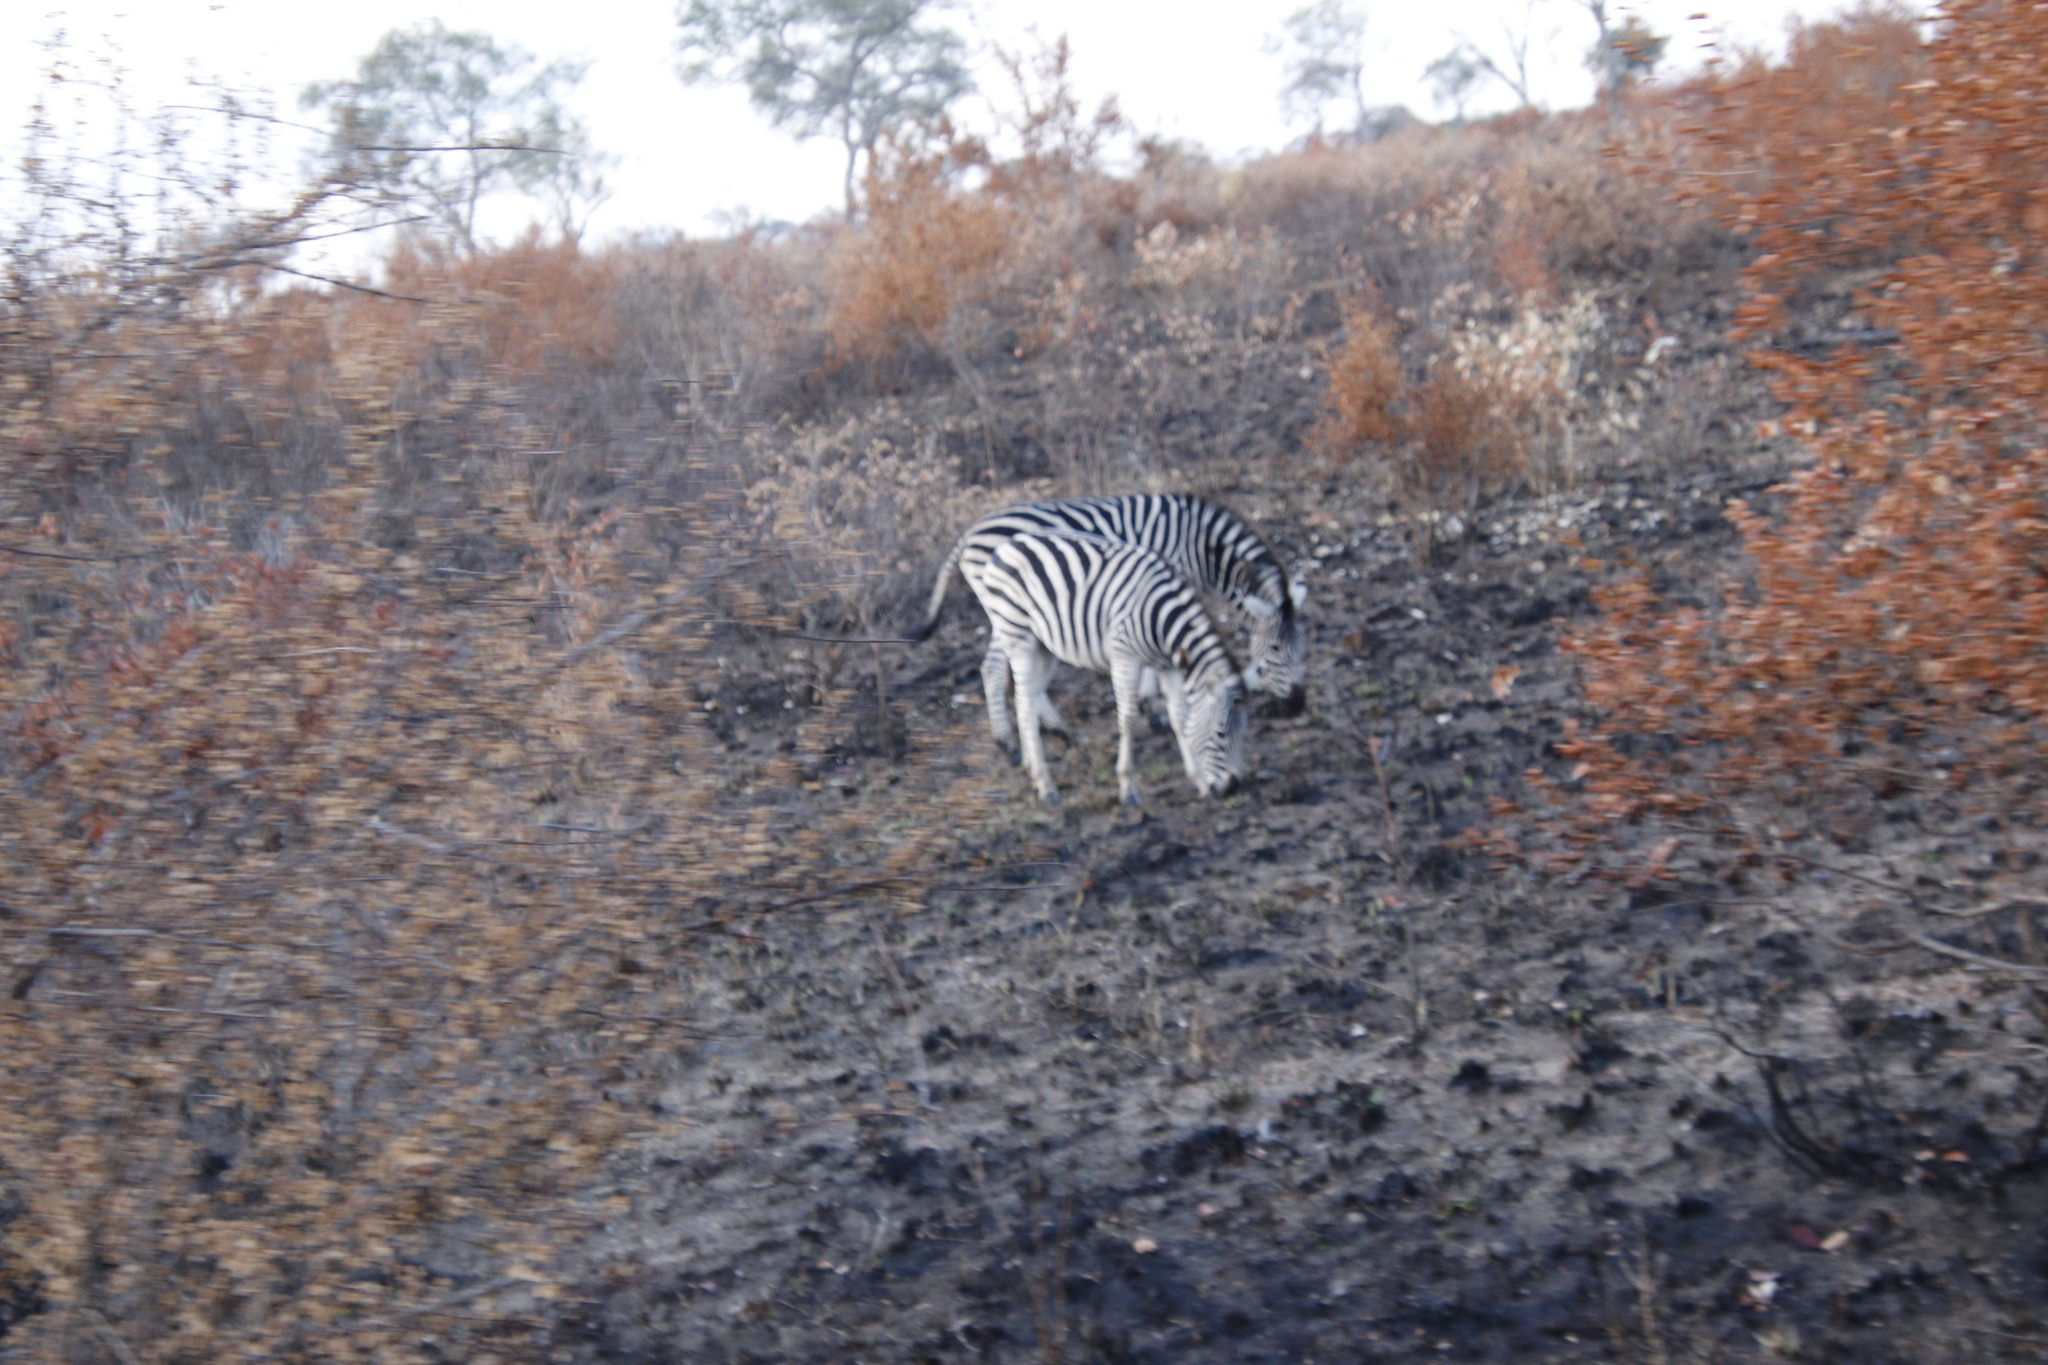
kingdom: Animalia
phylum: Chordata
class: Mammalia
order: Perissodactyla
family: Equidae
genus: Equus
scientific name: Equus quagga
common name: Plains zebra
